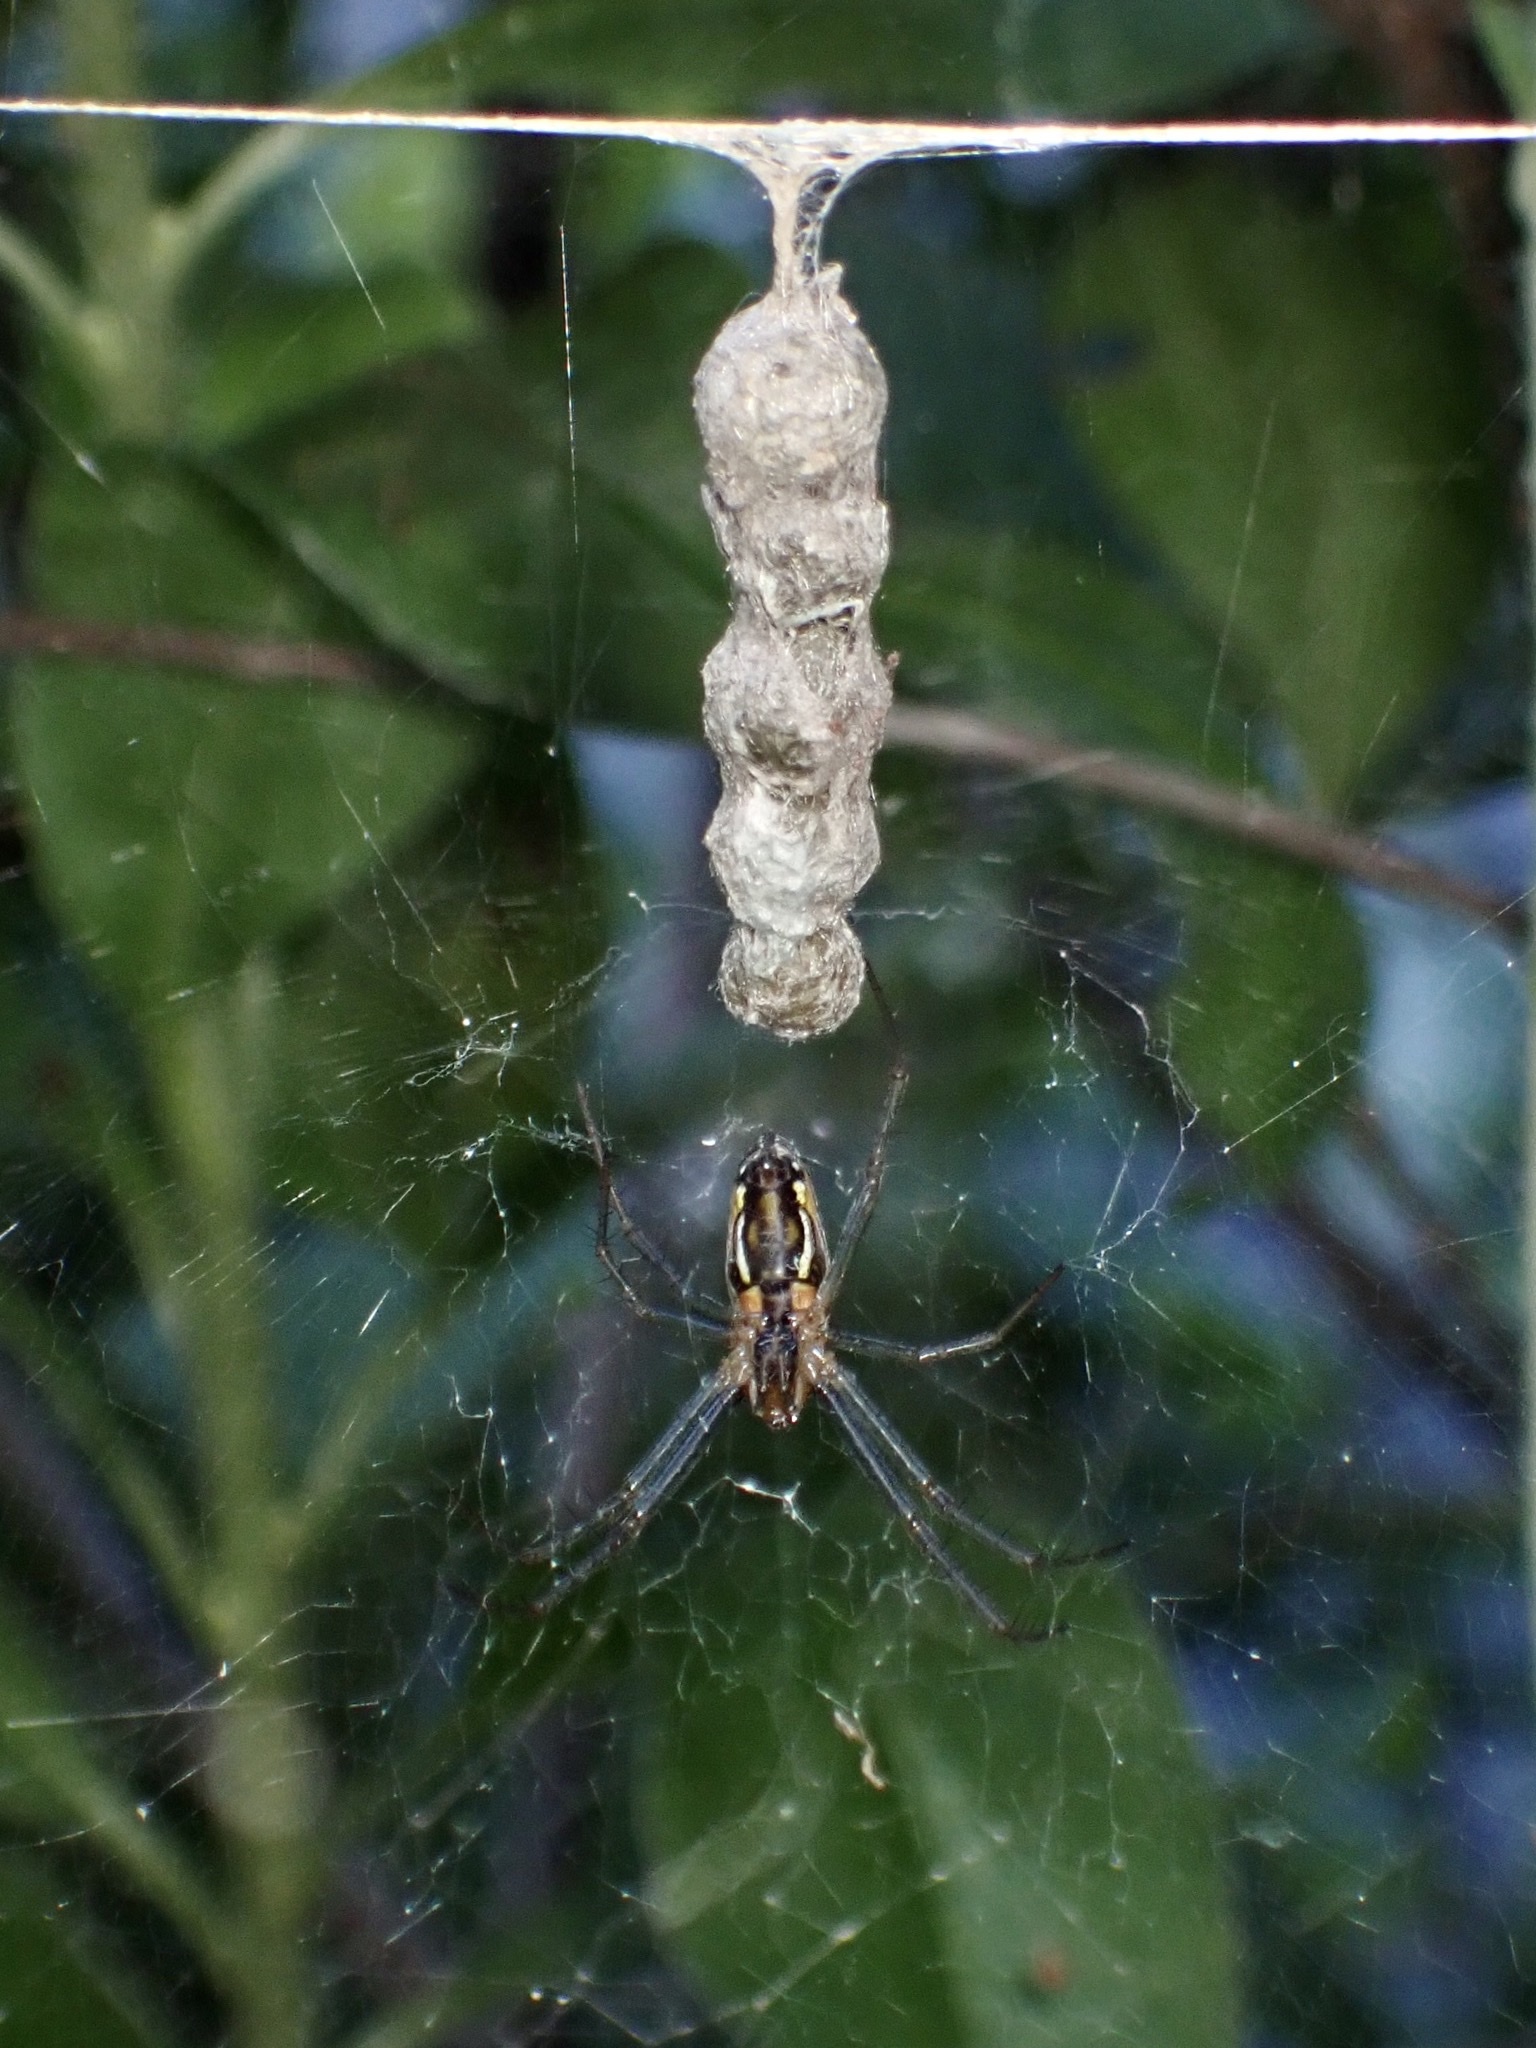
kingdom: Animalia
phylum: Arthropoda
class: Arachnida
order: Araneae
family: Araneidae
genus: Mecynogea
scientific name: Mecynogea lemniscata
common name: Orb weavers
